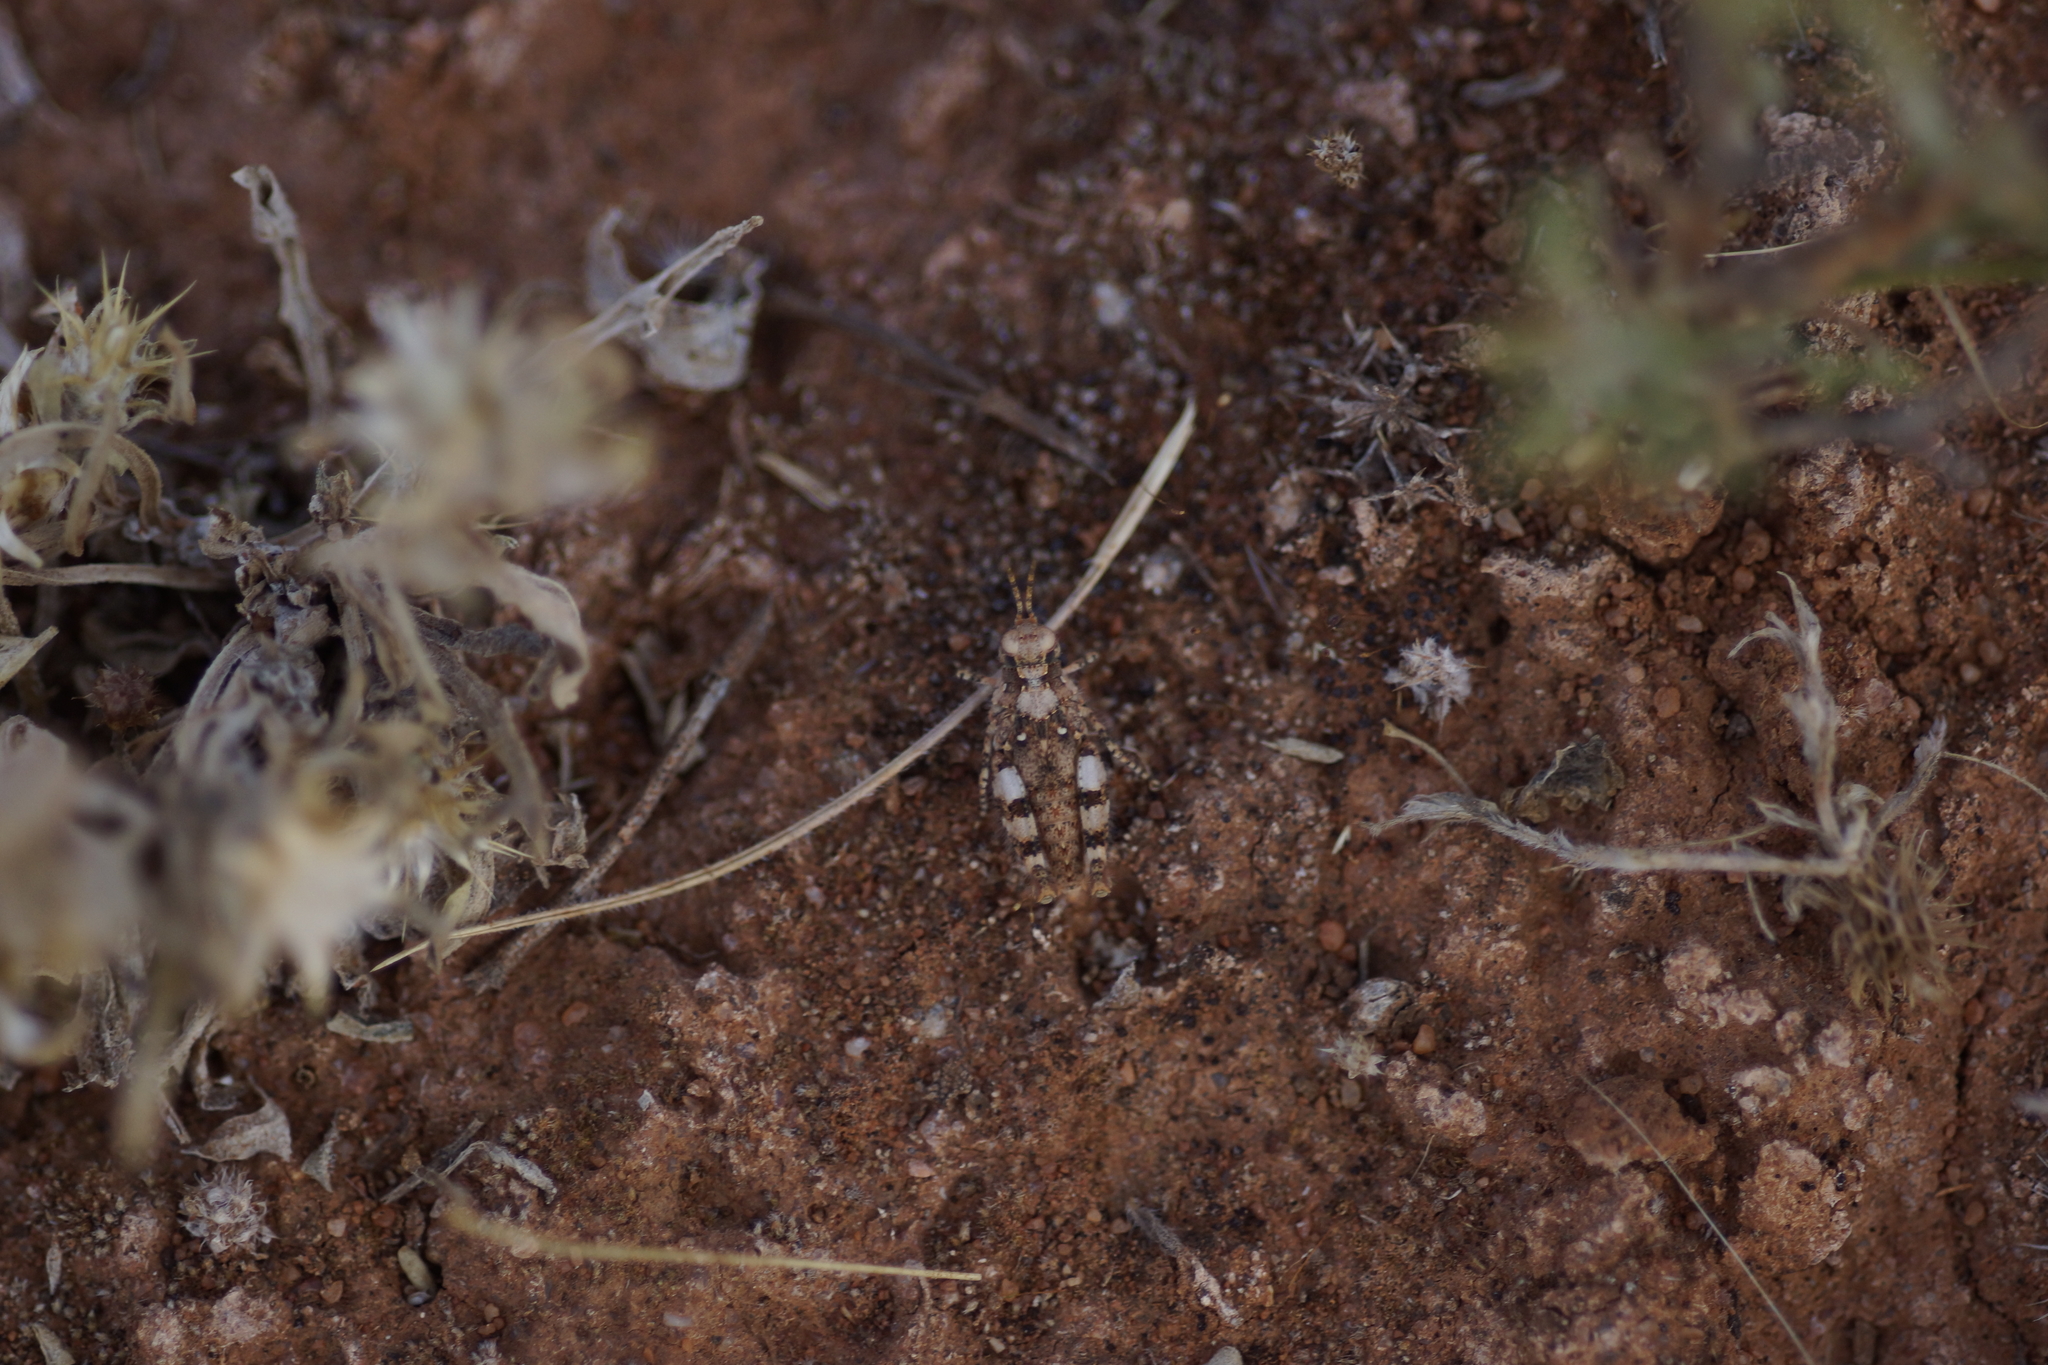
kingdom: Animalia
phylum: Arthropoda
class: Insecta
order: Orthoptera
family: Acrididae
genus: Tapesta
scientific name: Tapesta carneipes
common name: Blue-legged hairy grasshopper
